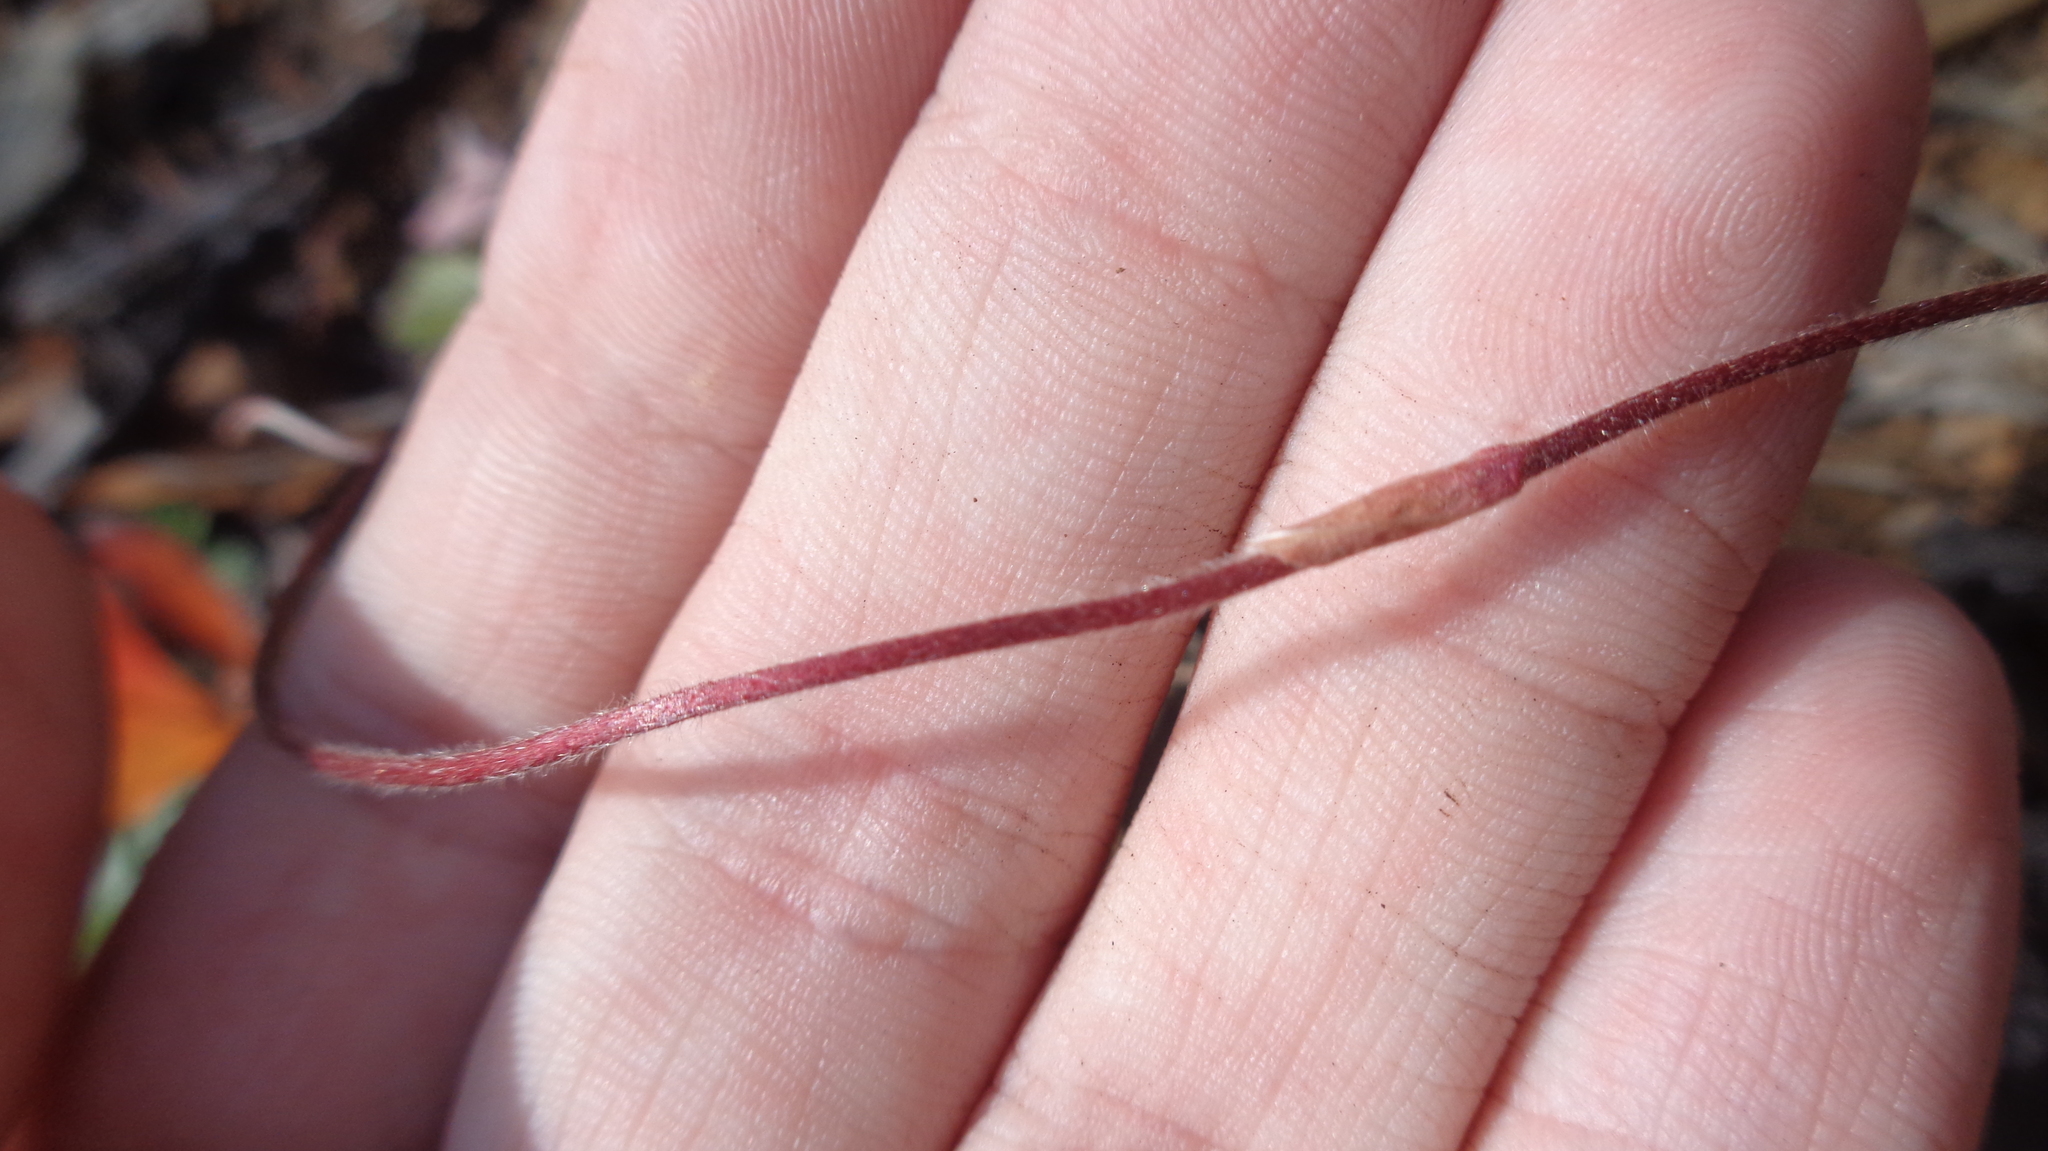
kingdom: Plantae
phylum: Tracheophyta
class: Magnoliopsida
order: Rosales
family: Rosaceae
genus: Fragaria
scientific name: Fragaria vesca
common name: Wild strawberry
